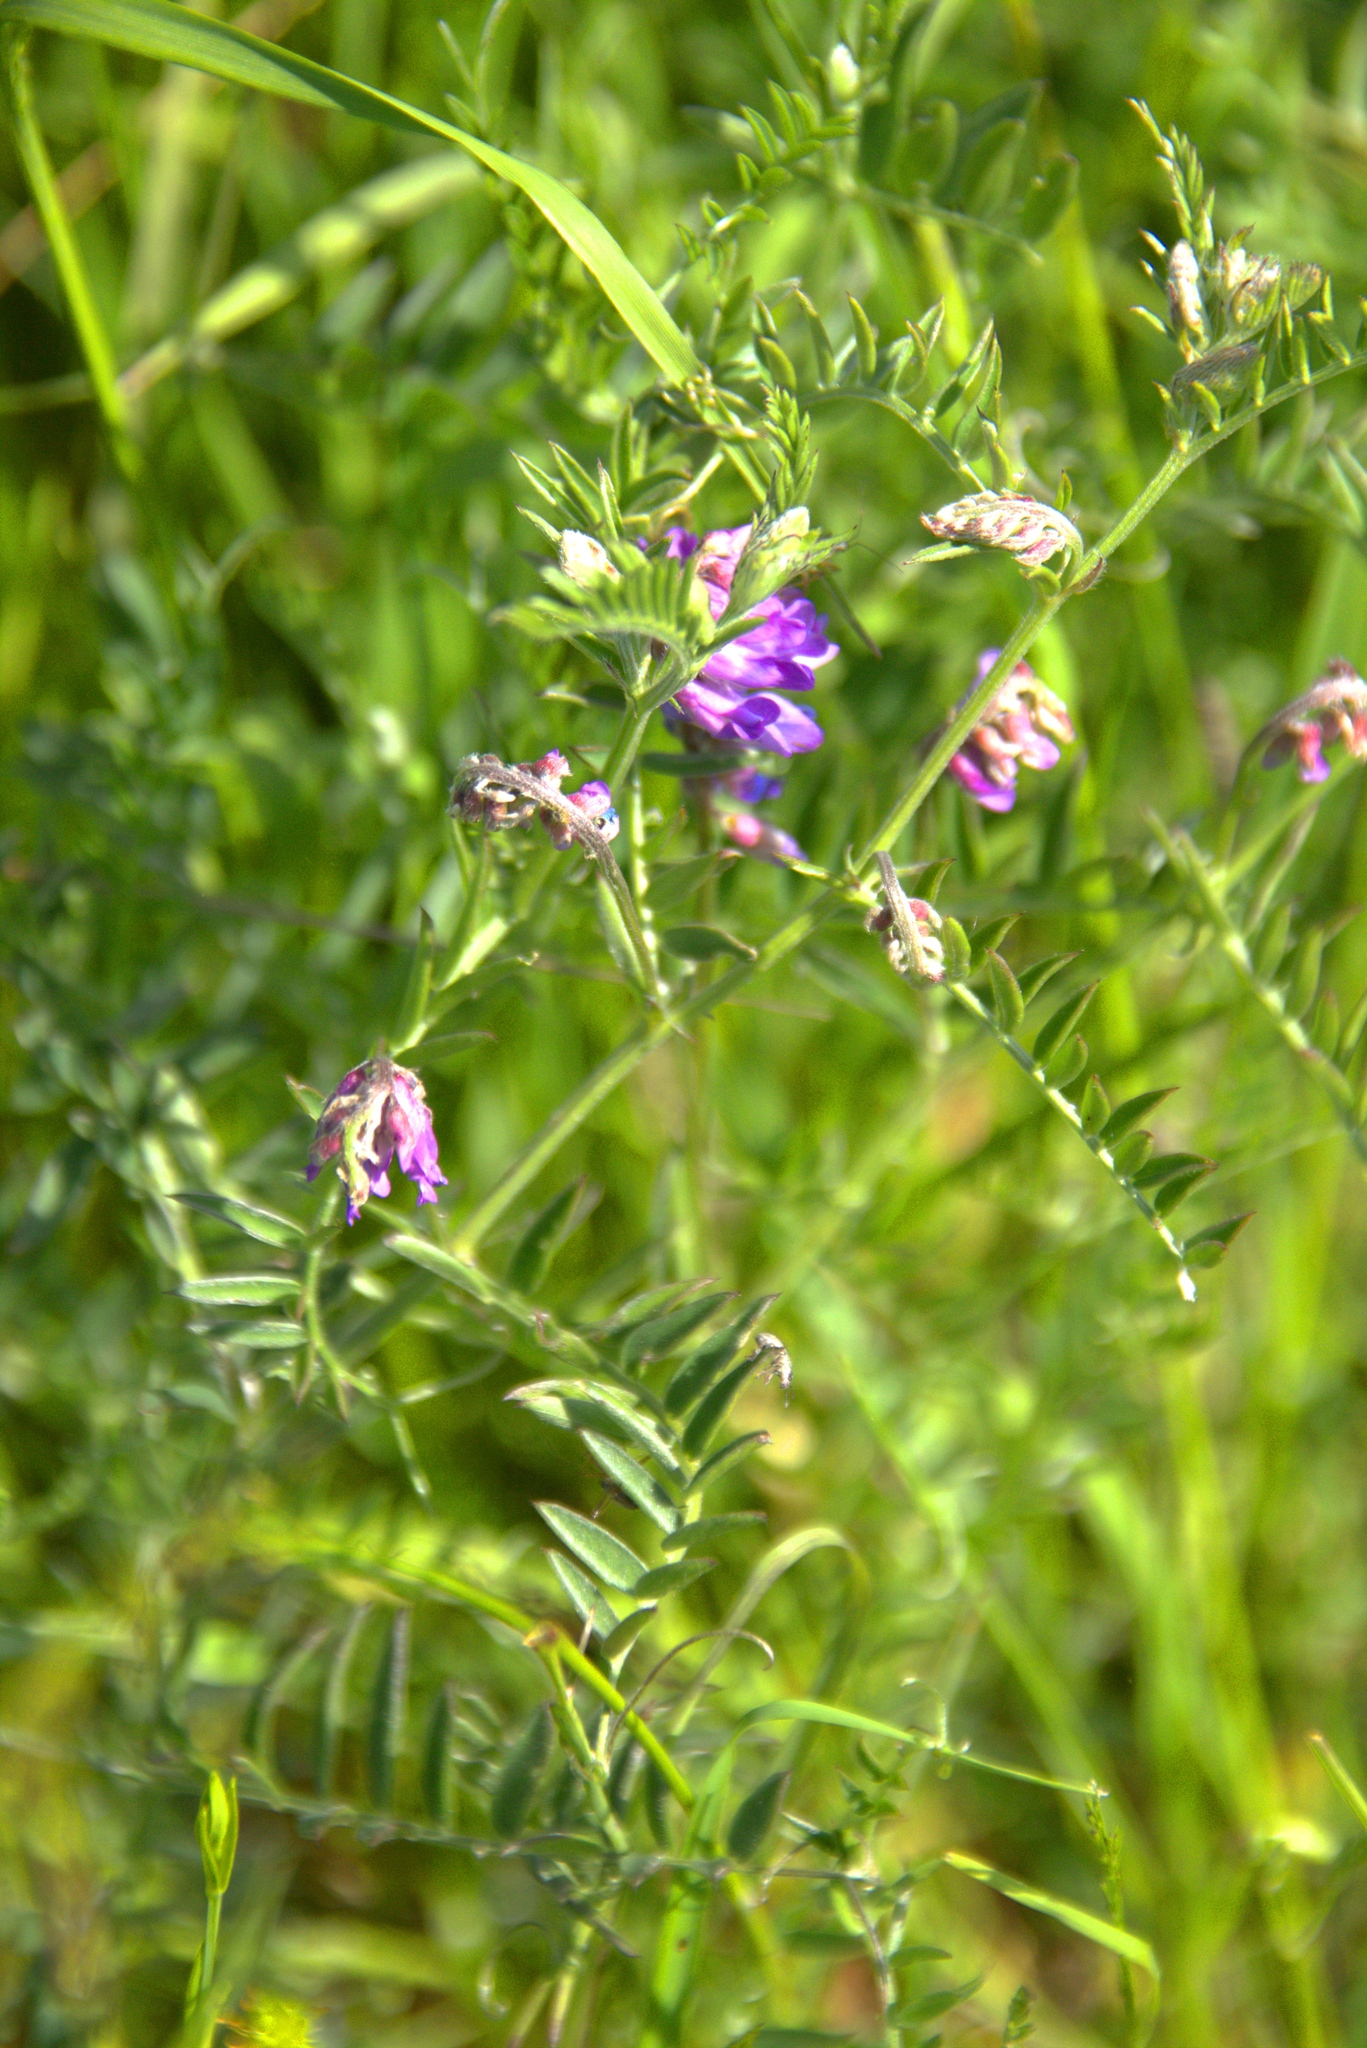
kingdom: Plantae
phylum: Tracheophyta
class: Magnoliopsida
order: Fabales
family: Fabaceae
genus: Vicia
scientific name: Vicia cracca
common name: Bird vetch
